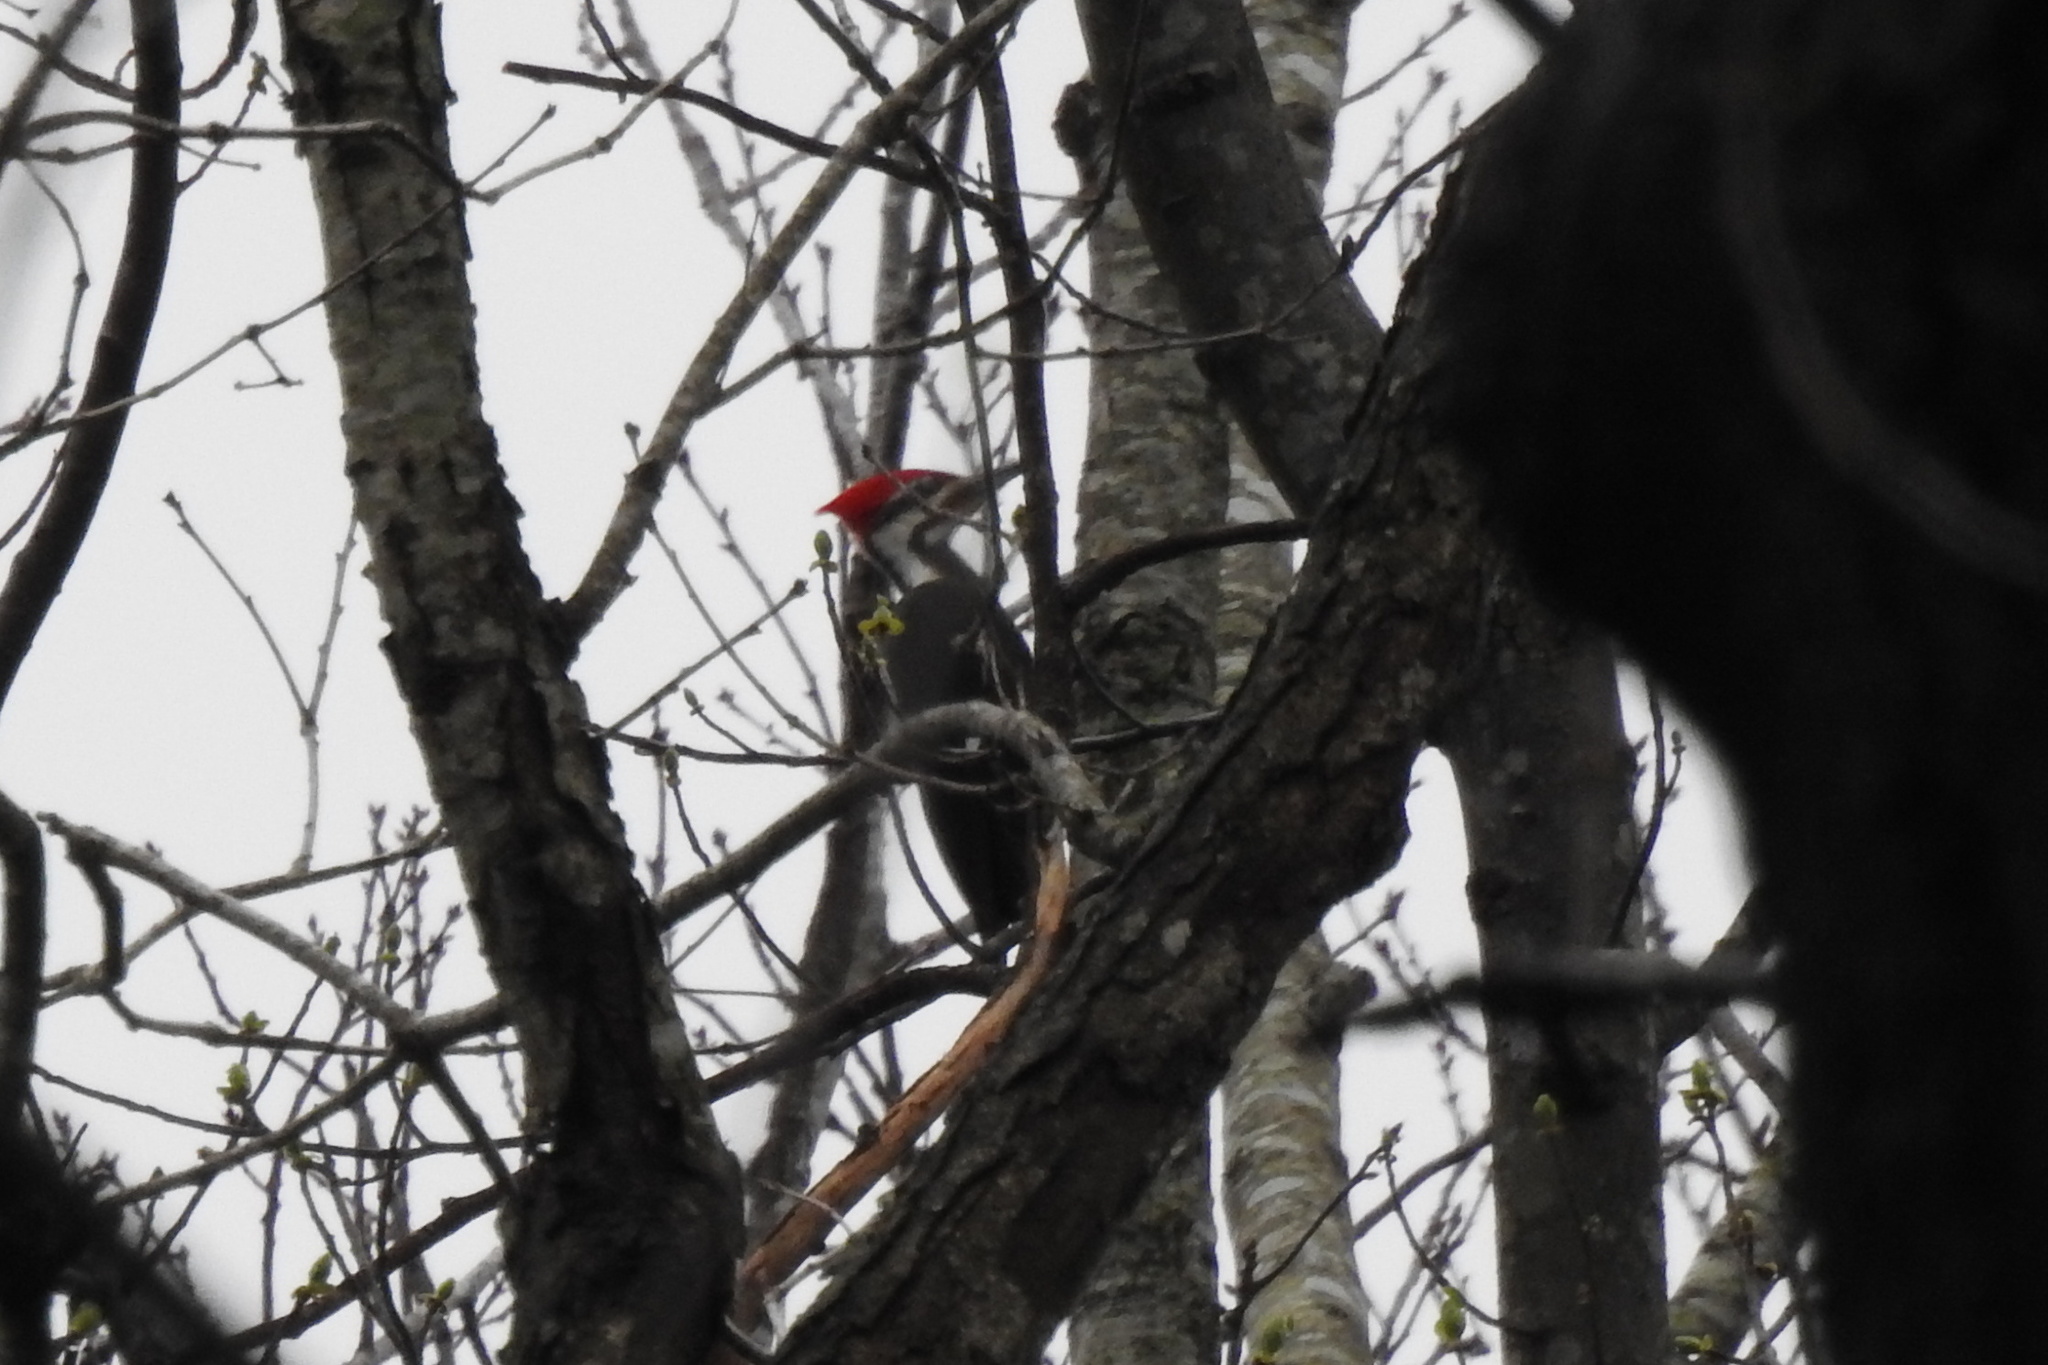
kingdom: Animalia
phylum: Chordata
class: Aves
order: Piciformes
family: Picidae
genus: Dryocopus
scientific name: Dryocopus pileatus
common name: Pileated woodpecker
